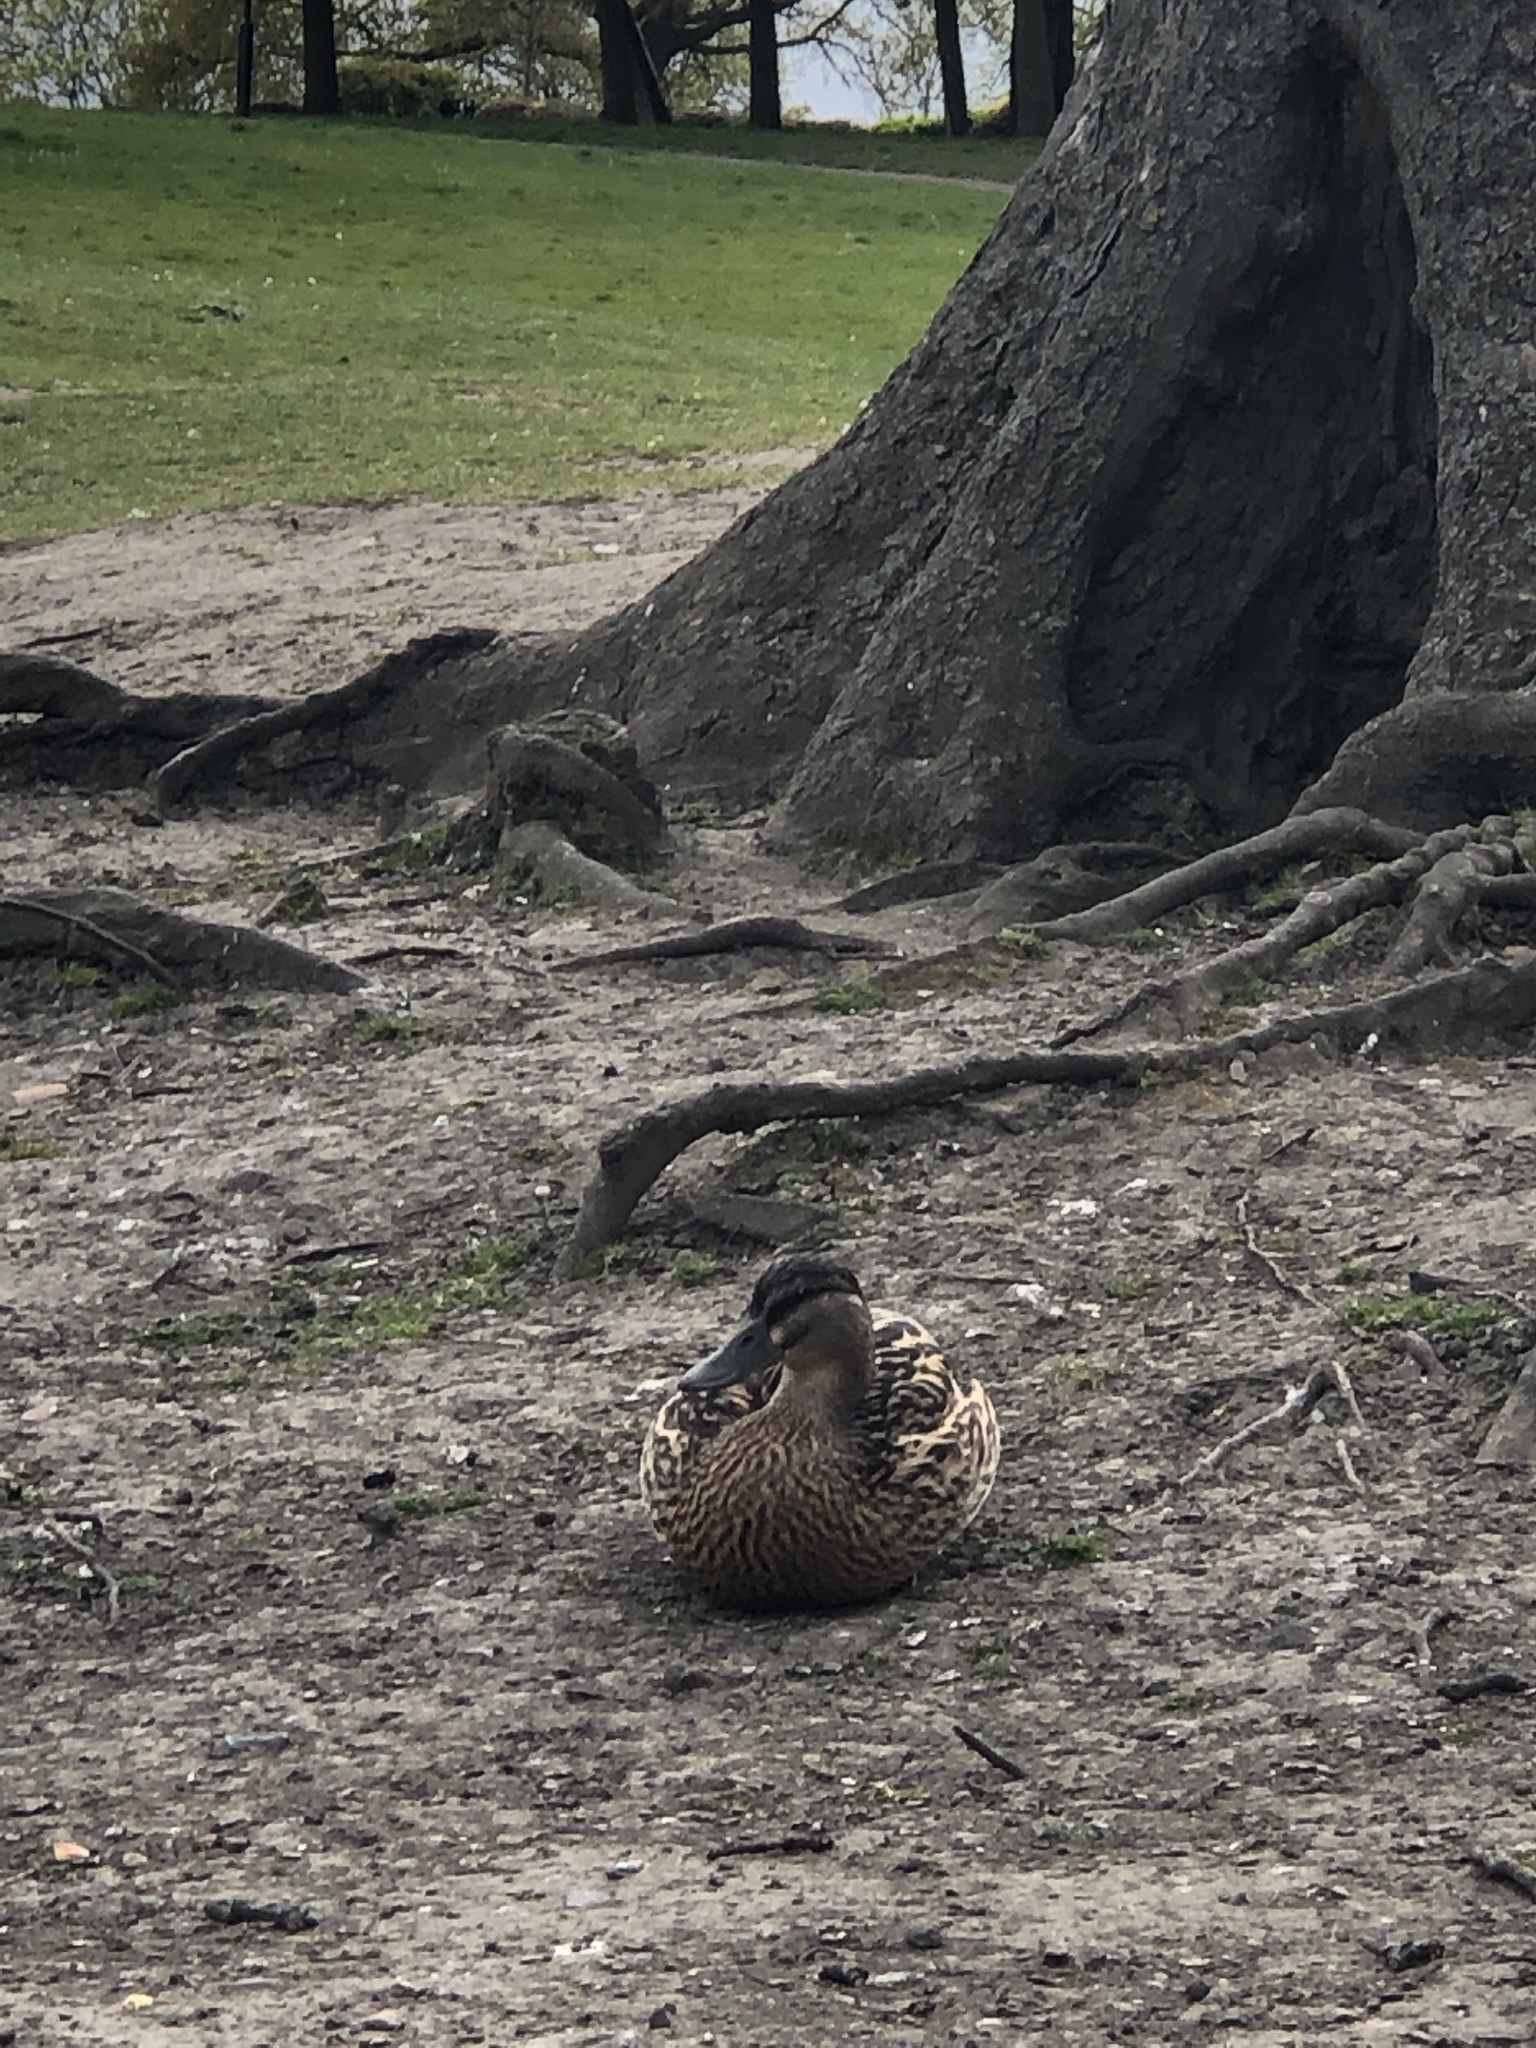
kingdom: Animalia
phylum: Chordata
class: Aves
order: Anseriformes
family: Anatidae
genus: Anas
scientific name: Anas platyrhynchos
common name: Mallard
